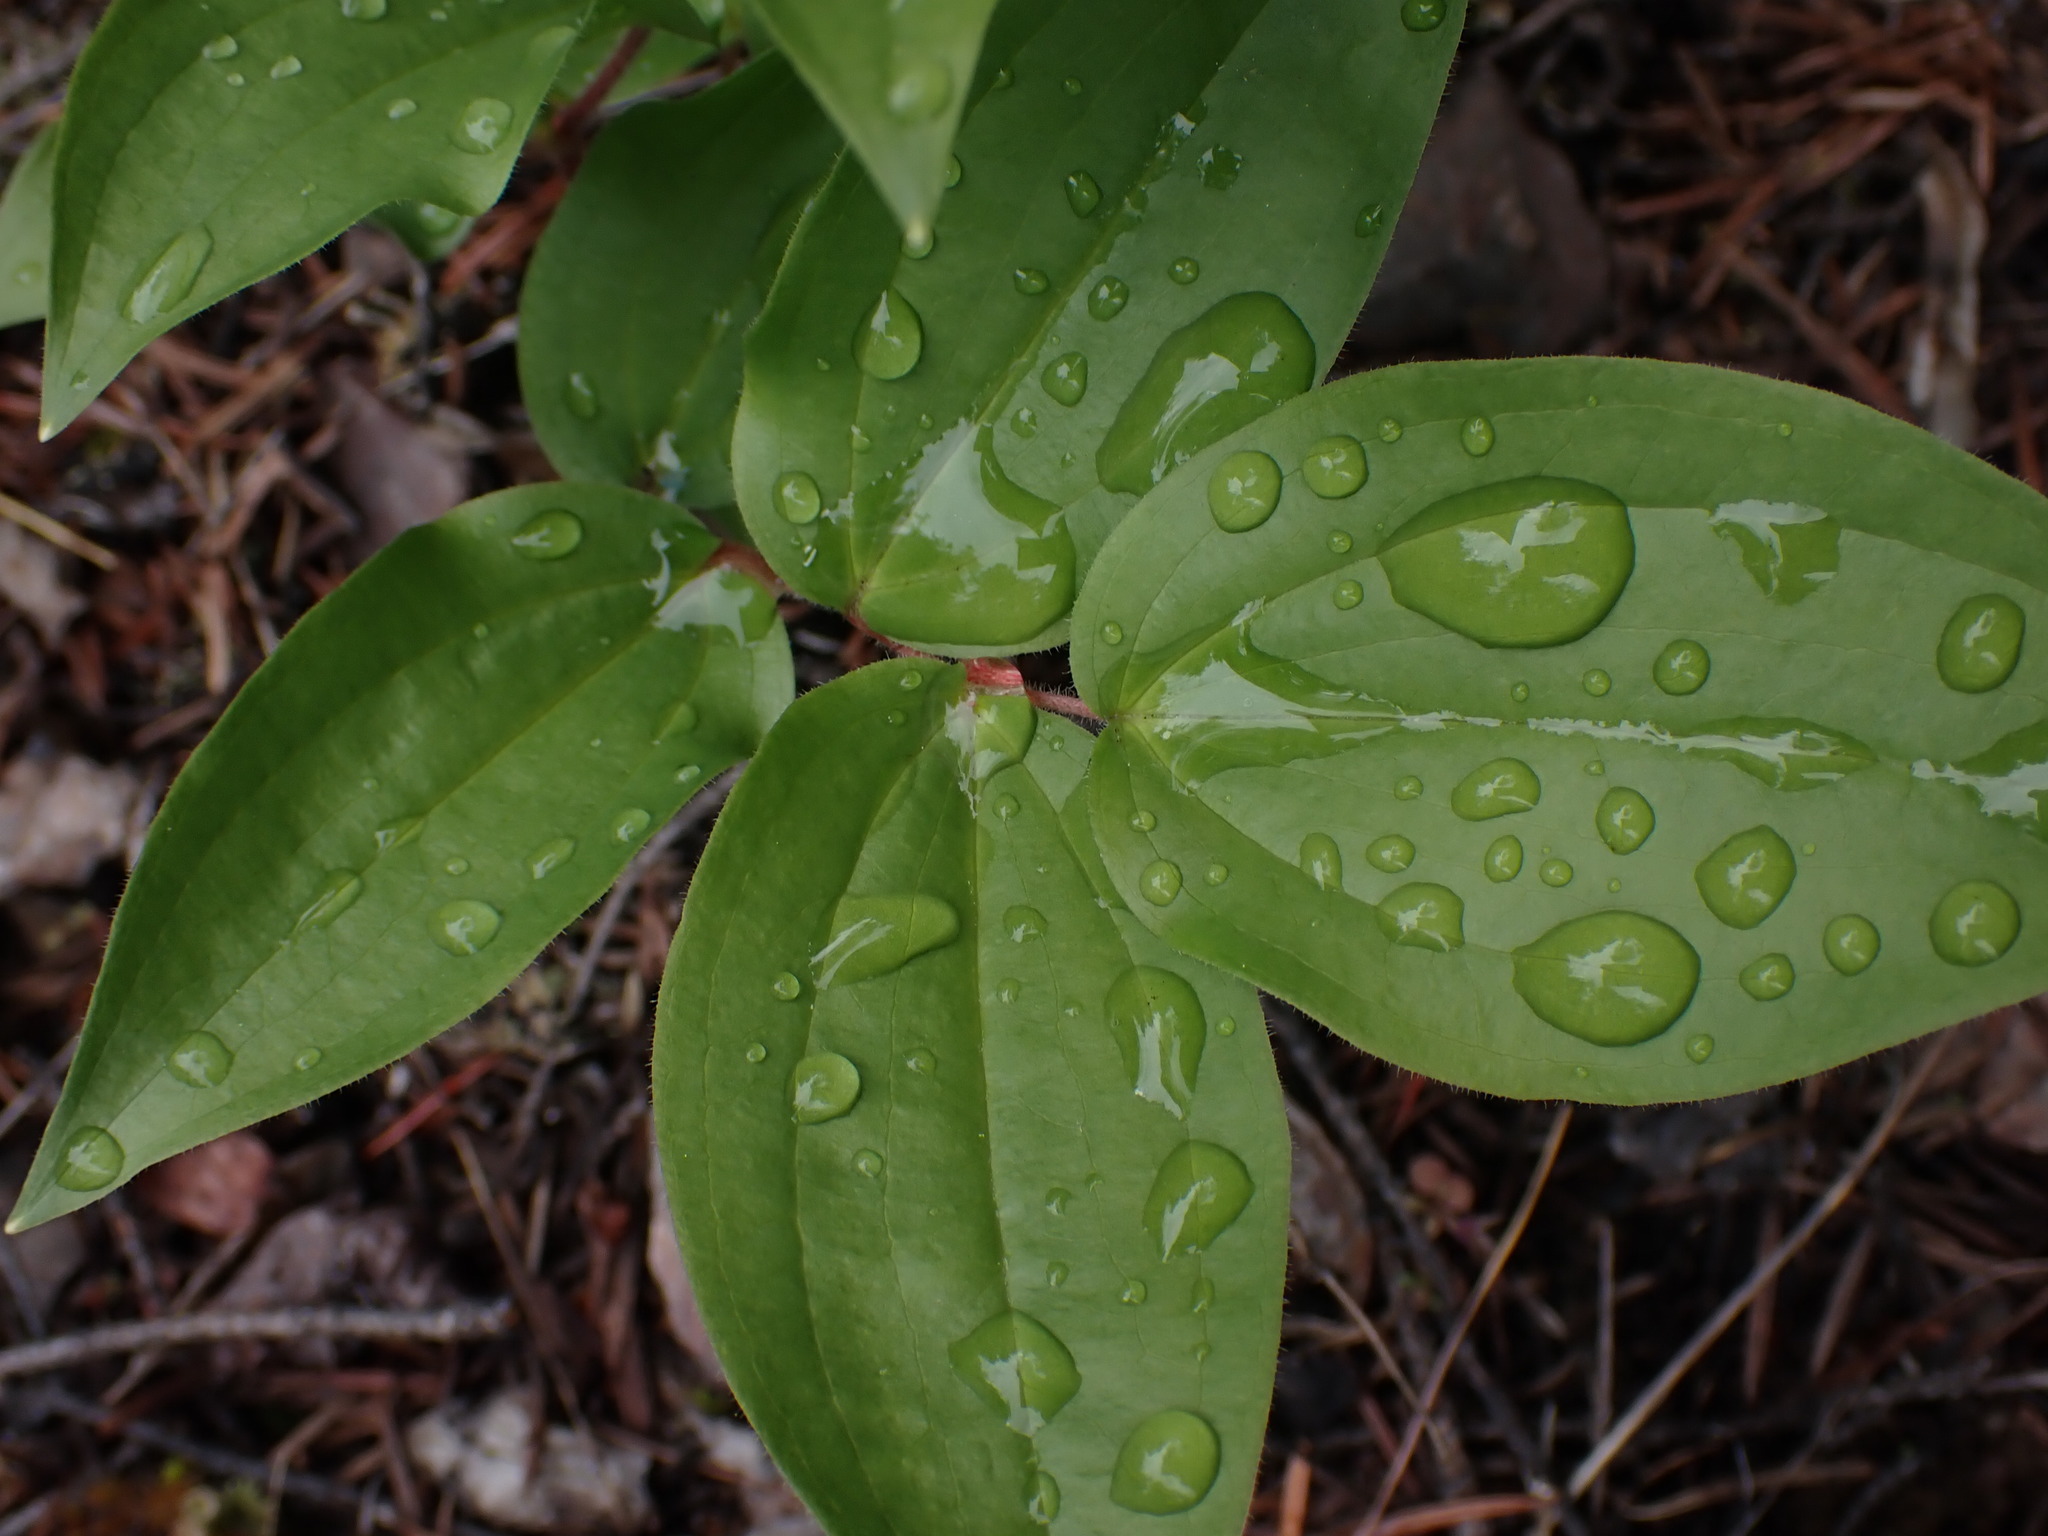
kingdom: Plantae
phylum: Tracheophyta
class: Liliopsida
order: Liliales
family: Liliaceae
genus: Prosartes
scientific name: Prosartes trachycarpa
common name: Rough-fruit fairy-bells
